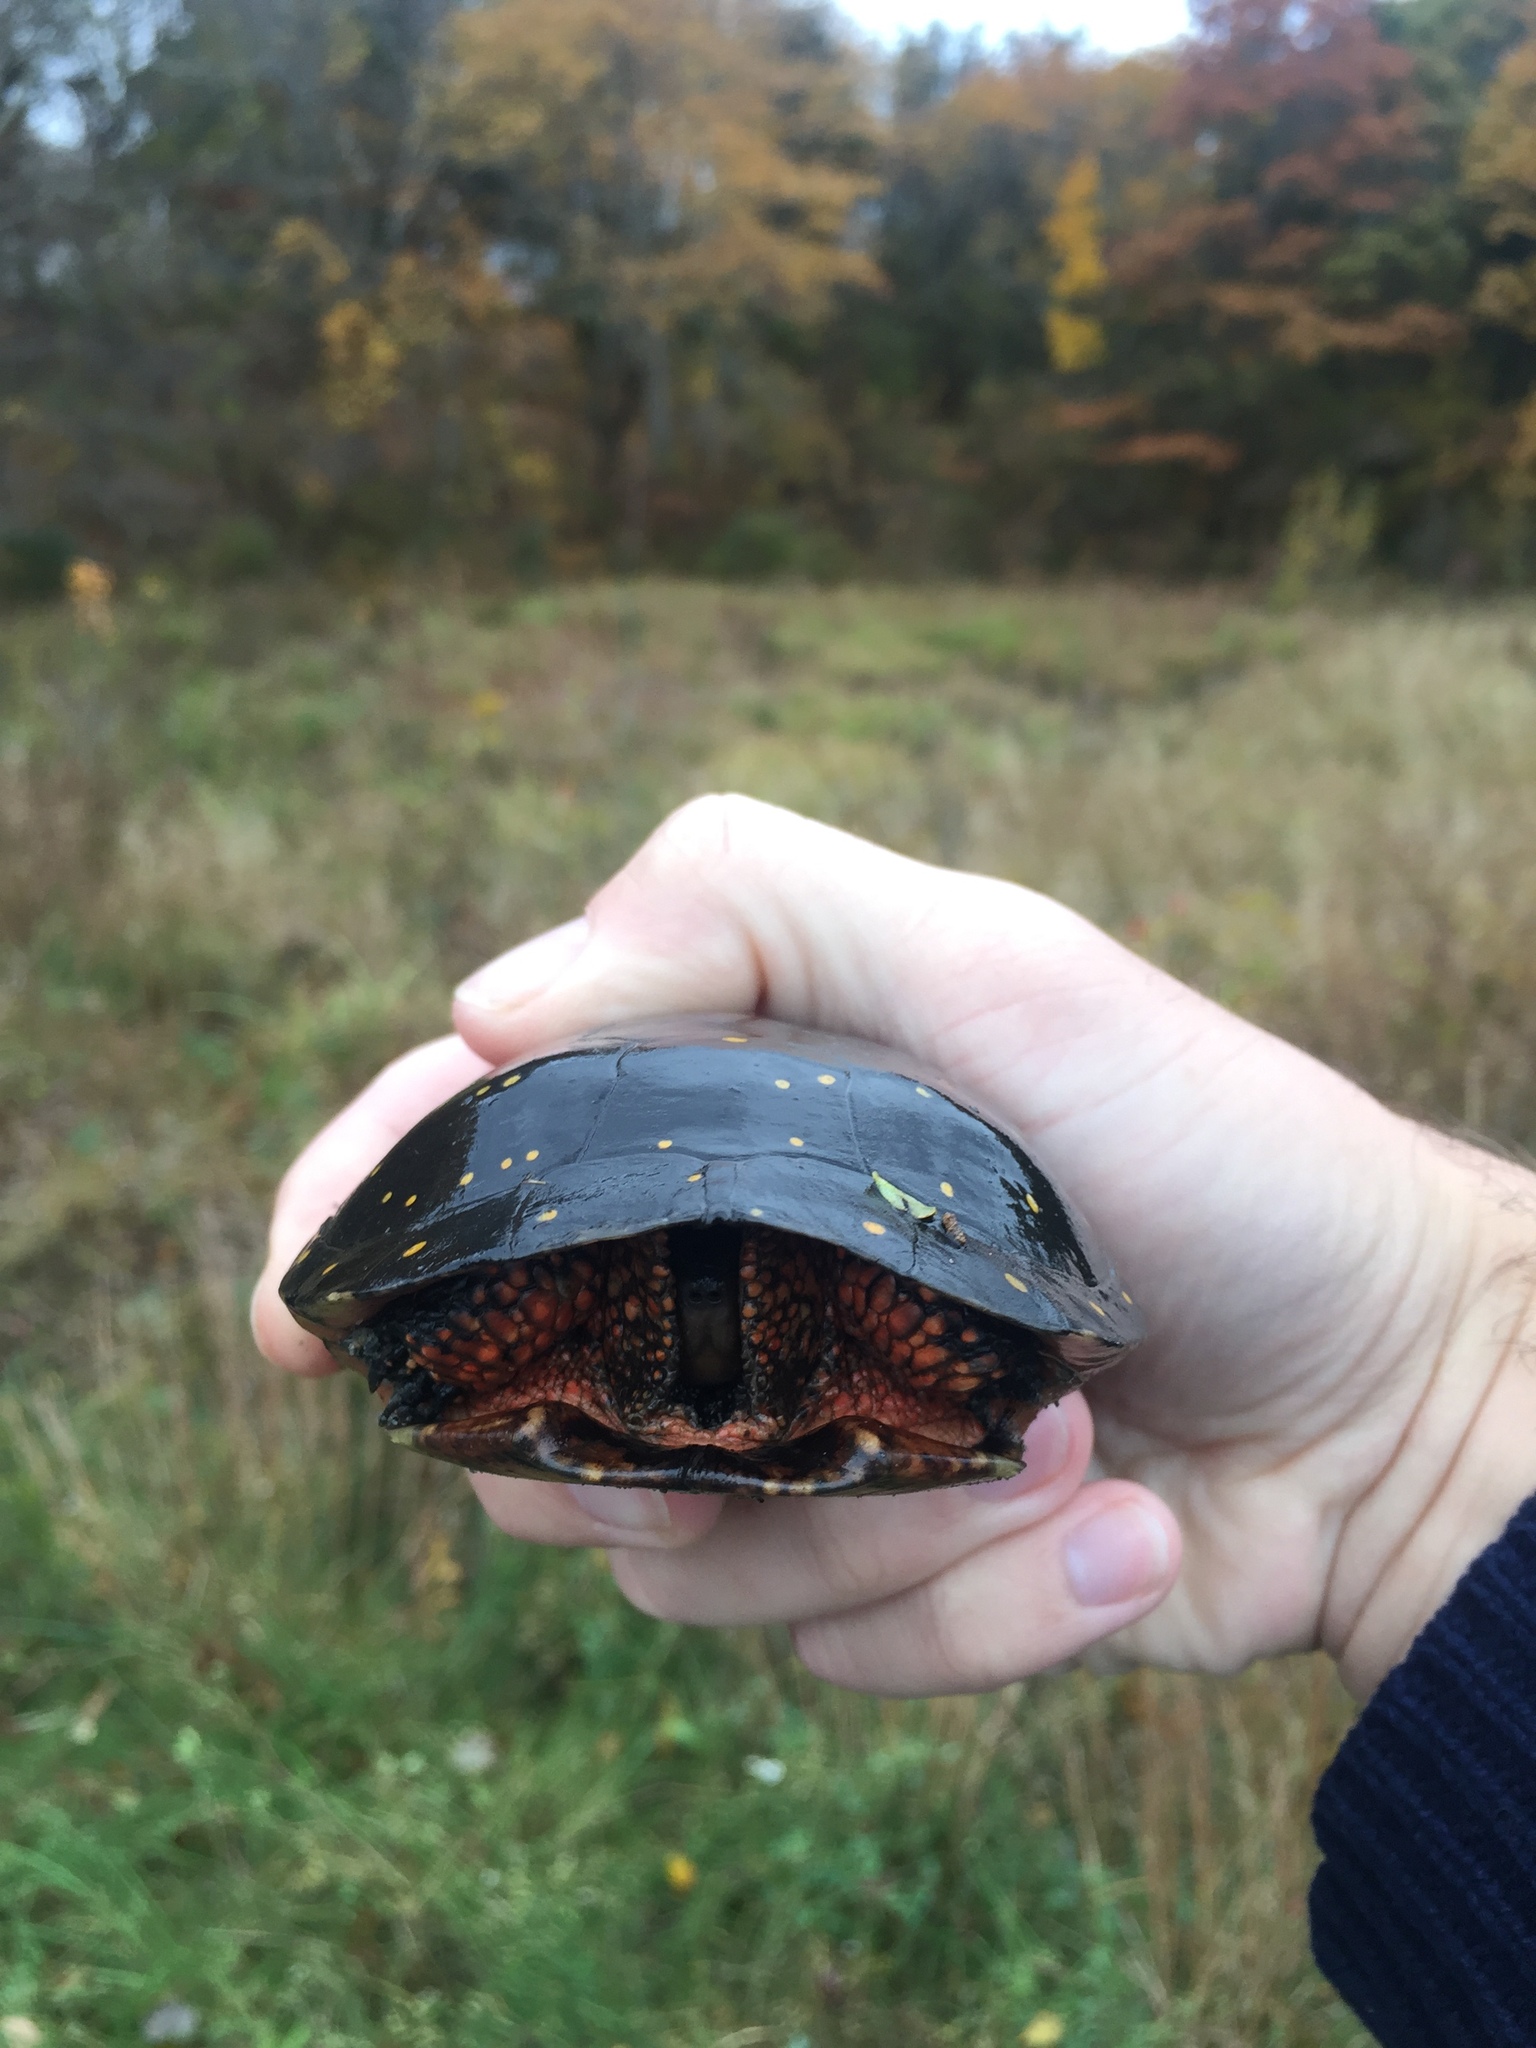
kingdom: Animalia
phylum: Chordata
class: Testudines
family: Emydidae
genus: Clemmys
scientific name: Clemmys guttata
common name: Spotted turtle
